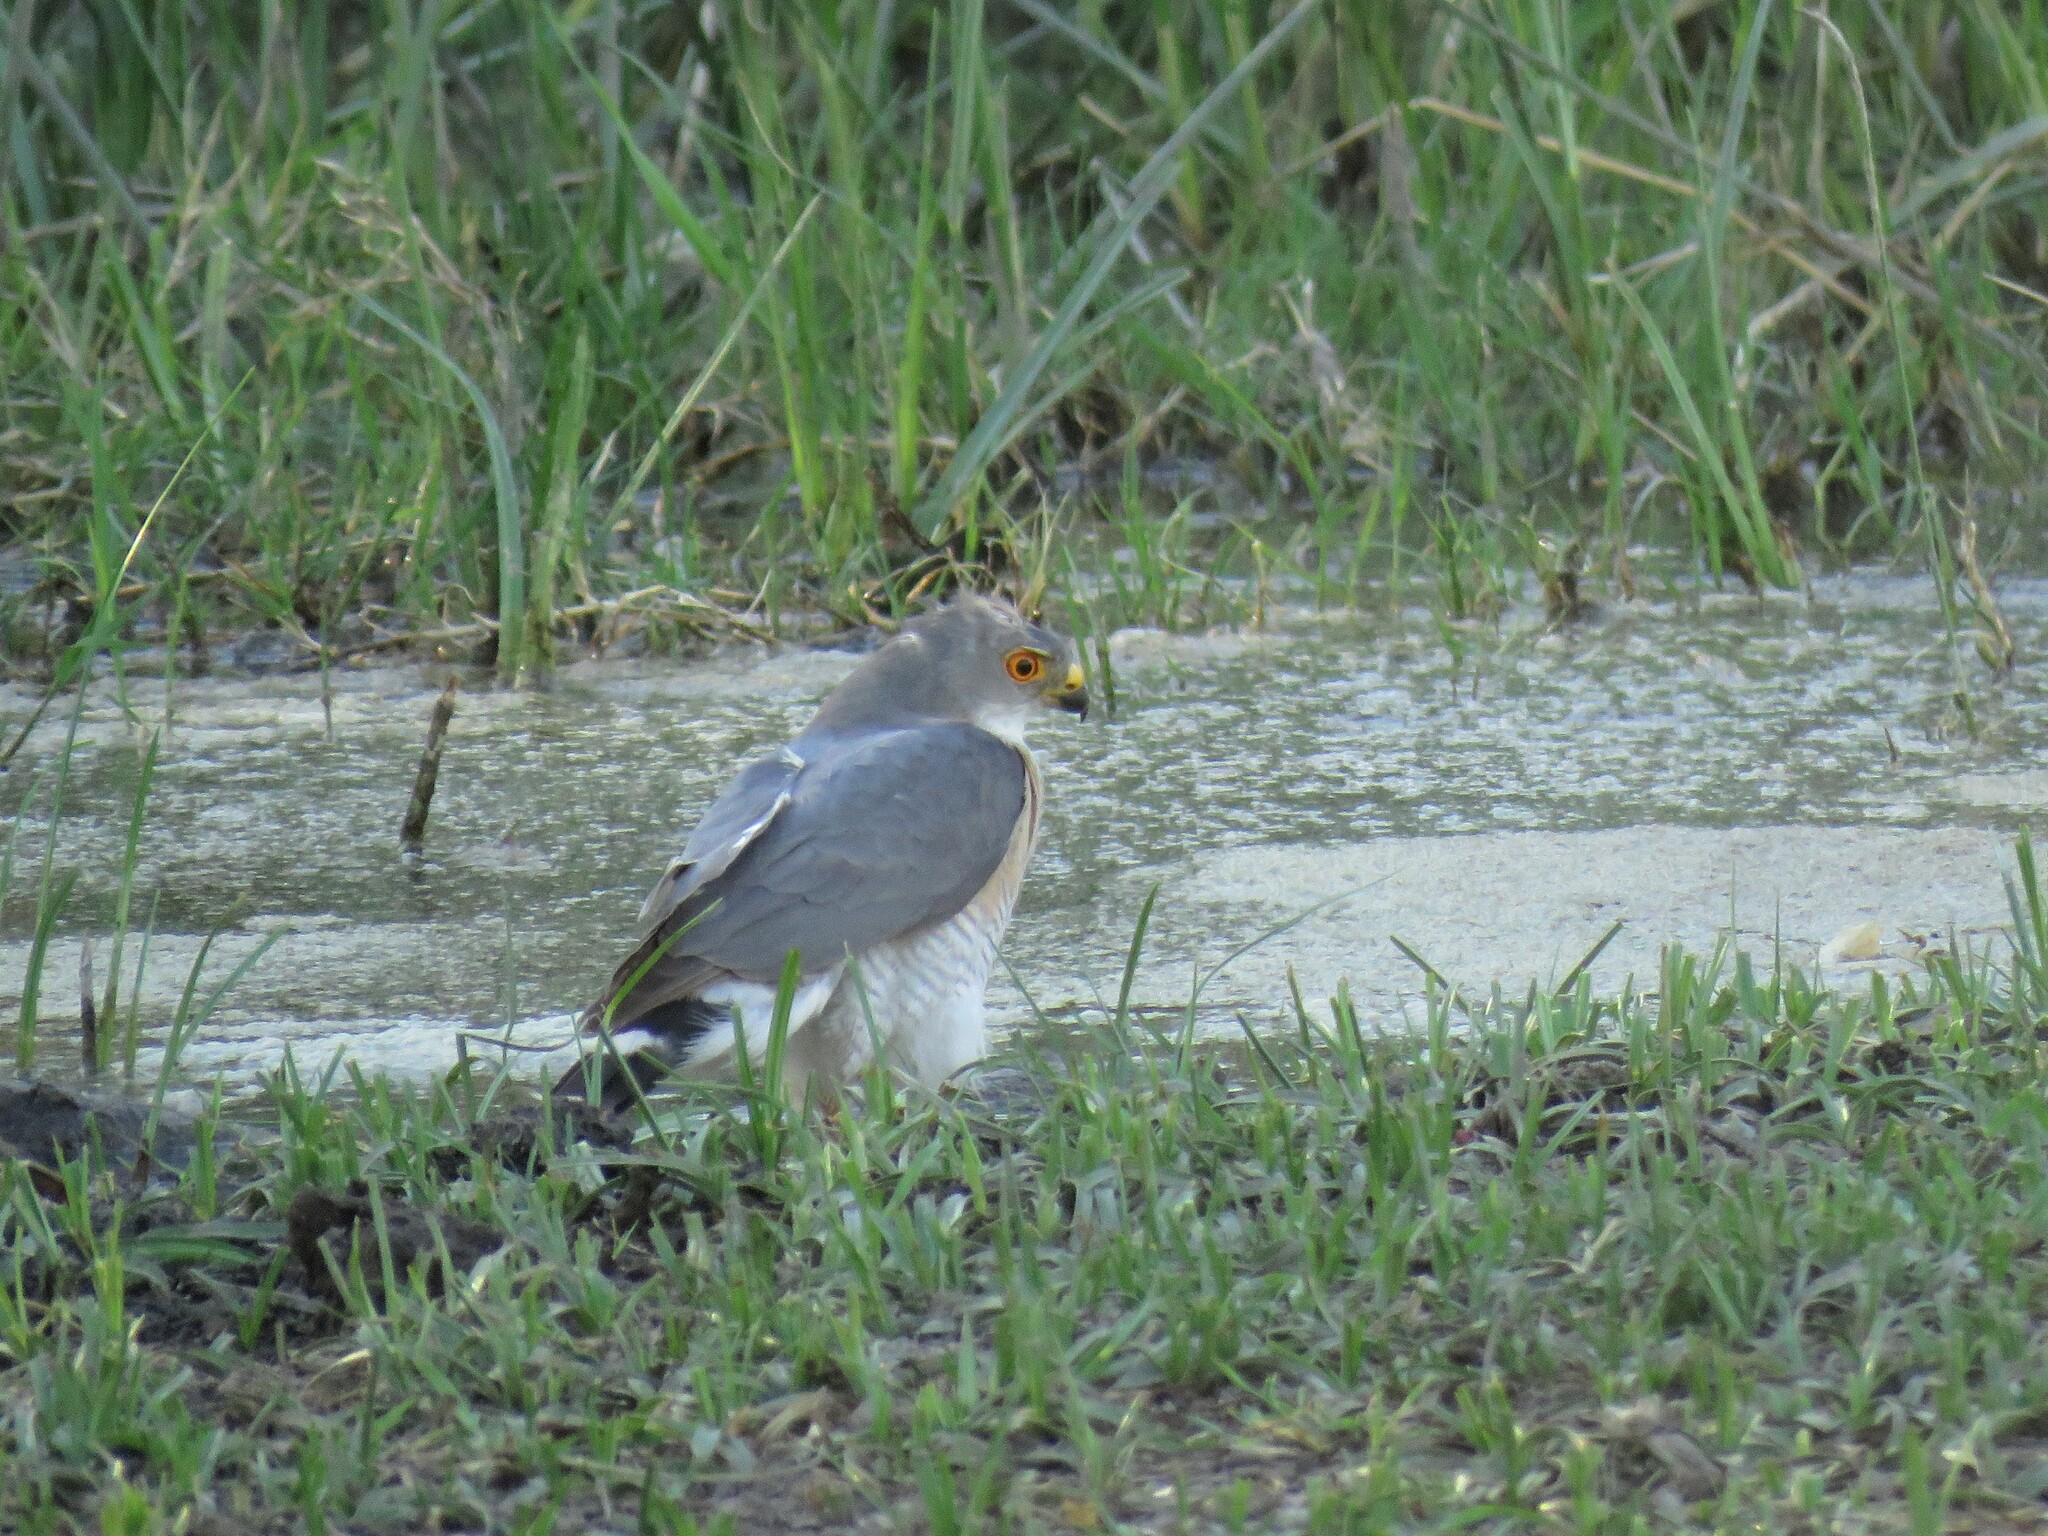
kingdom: Animalia
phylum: Chordata
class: Aves
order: Accipitriformes
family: Accipitridae
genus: Accipiter
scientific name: Accipiter minullus
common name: Little sparrowhawk
